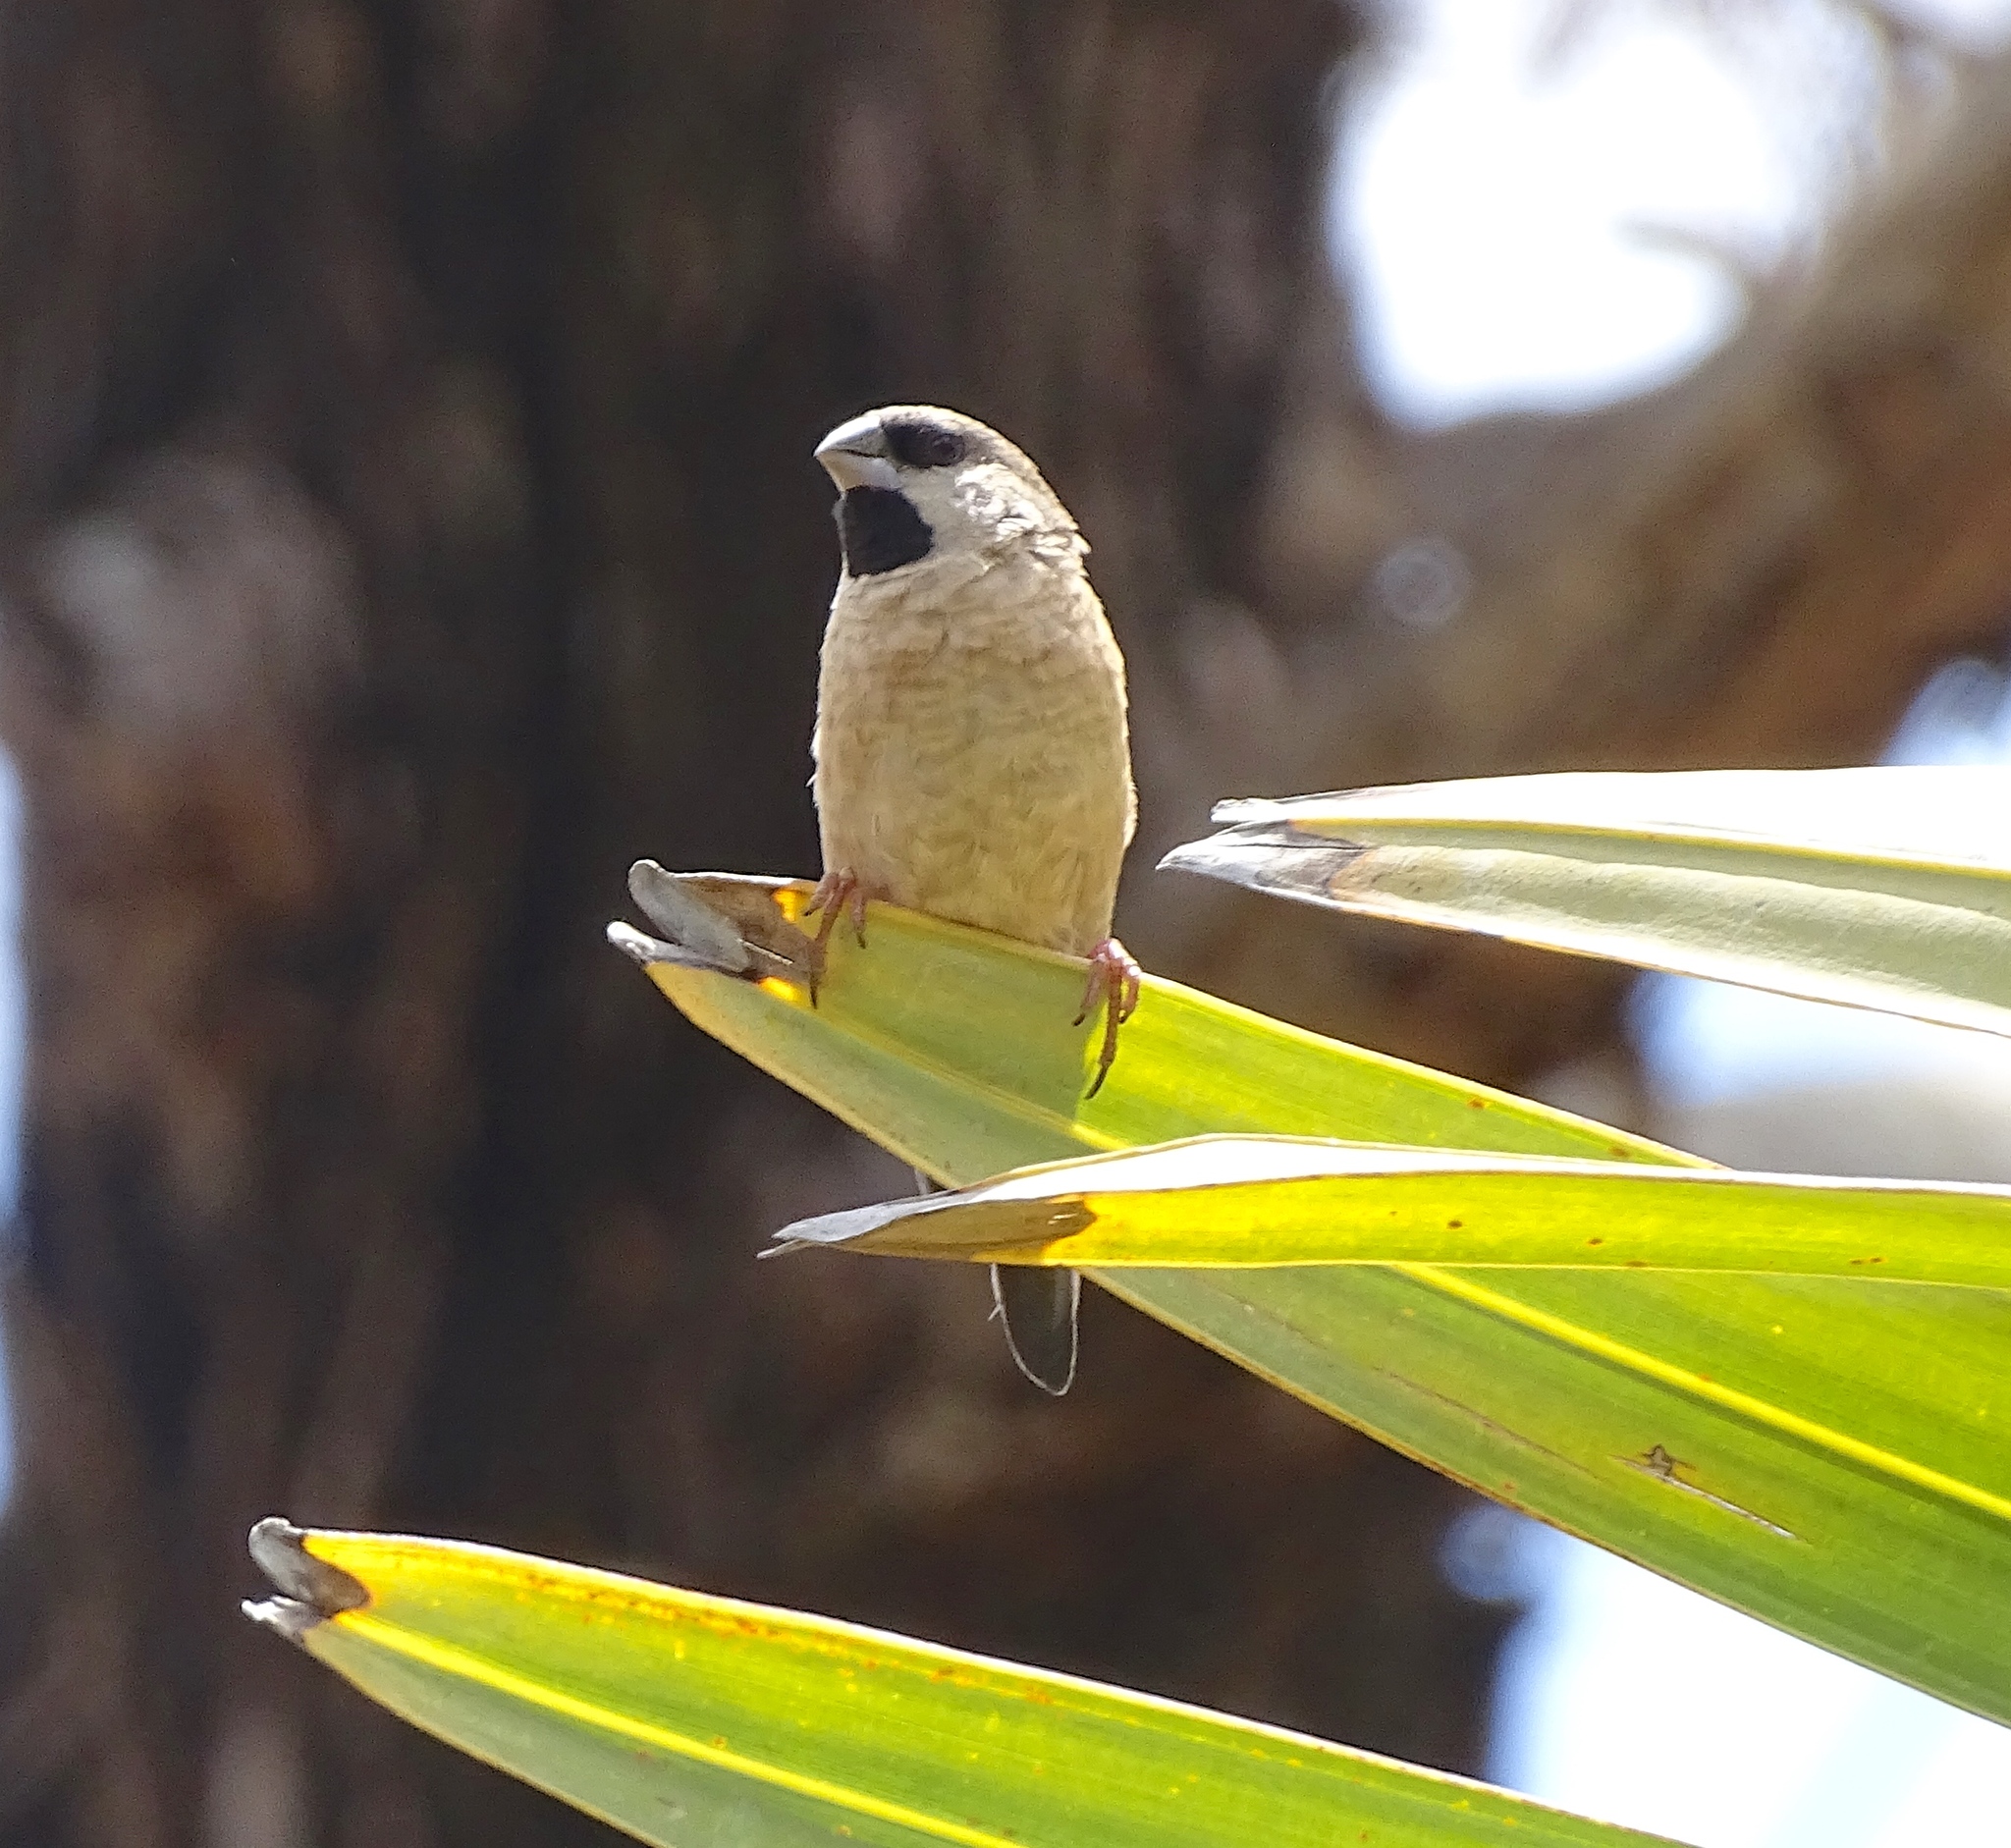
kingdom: Animalia
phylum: Chordata
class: Aves
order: Passeriformes
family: Estrildidae
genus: Lemuresthes
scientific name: Lemuresthes nana
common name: Madagascar mannikin
